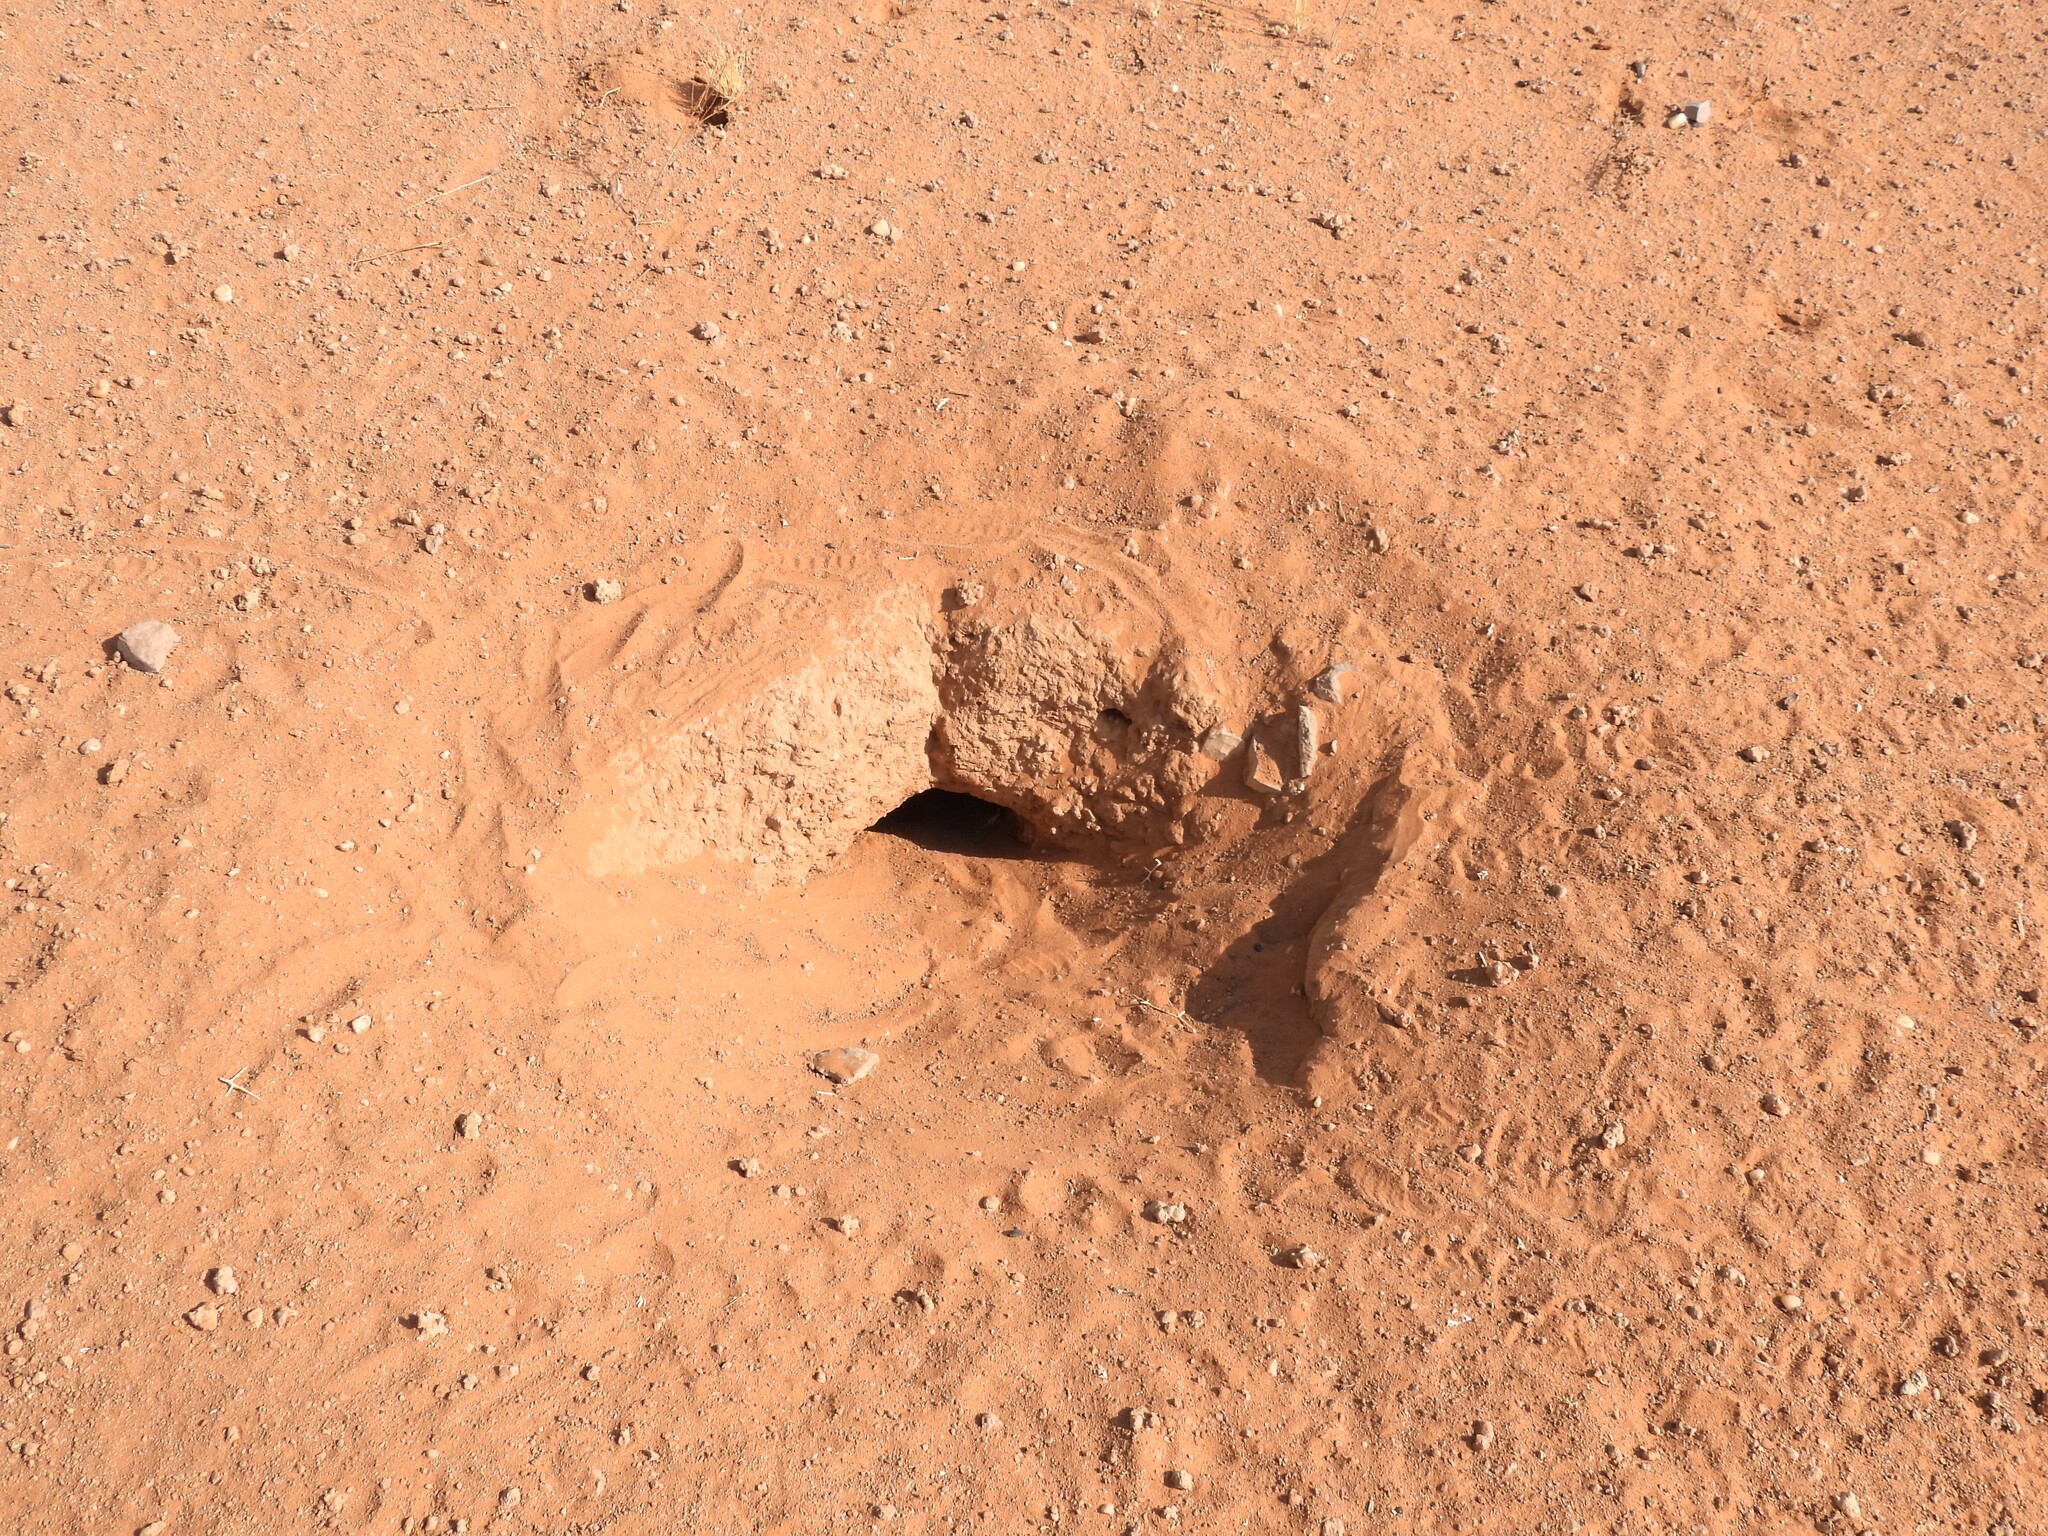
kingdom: Animalia
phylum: Chordata
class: Squamata
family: Agamidae
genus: Uromastyx
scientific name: Uromastyx aegyptia
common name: Egyptian mastigure
